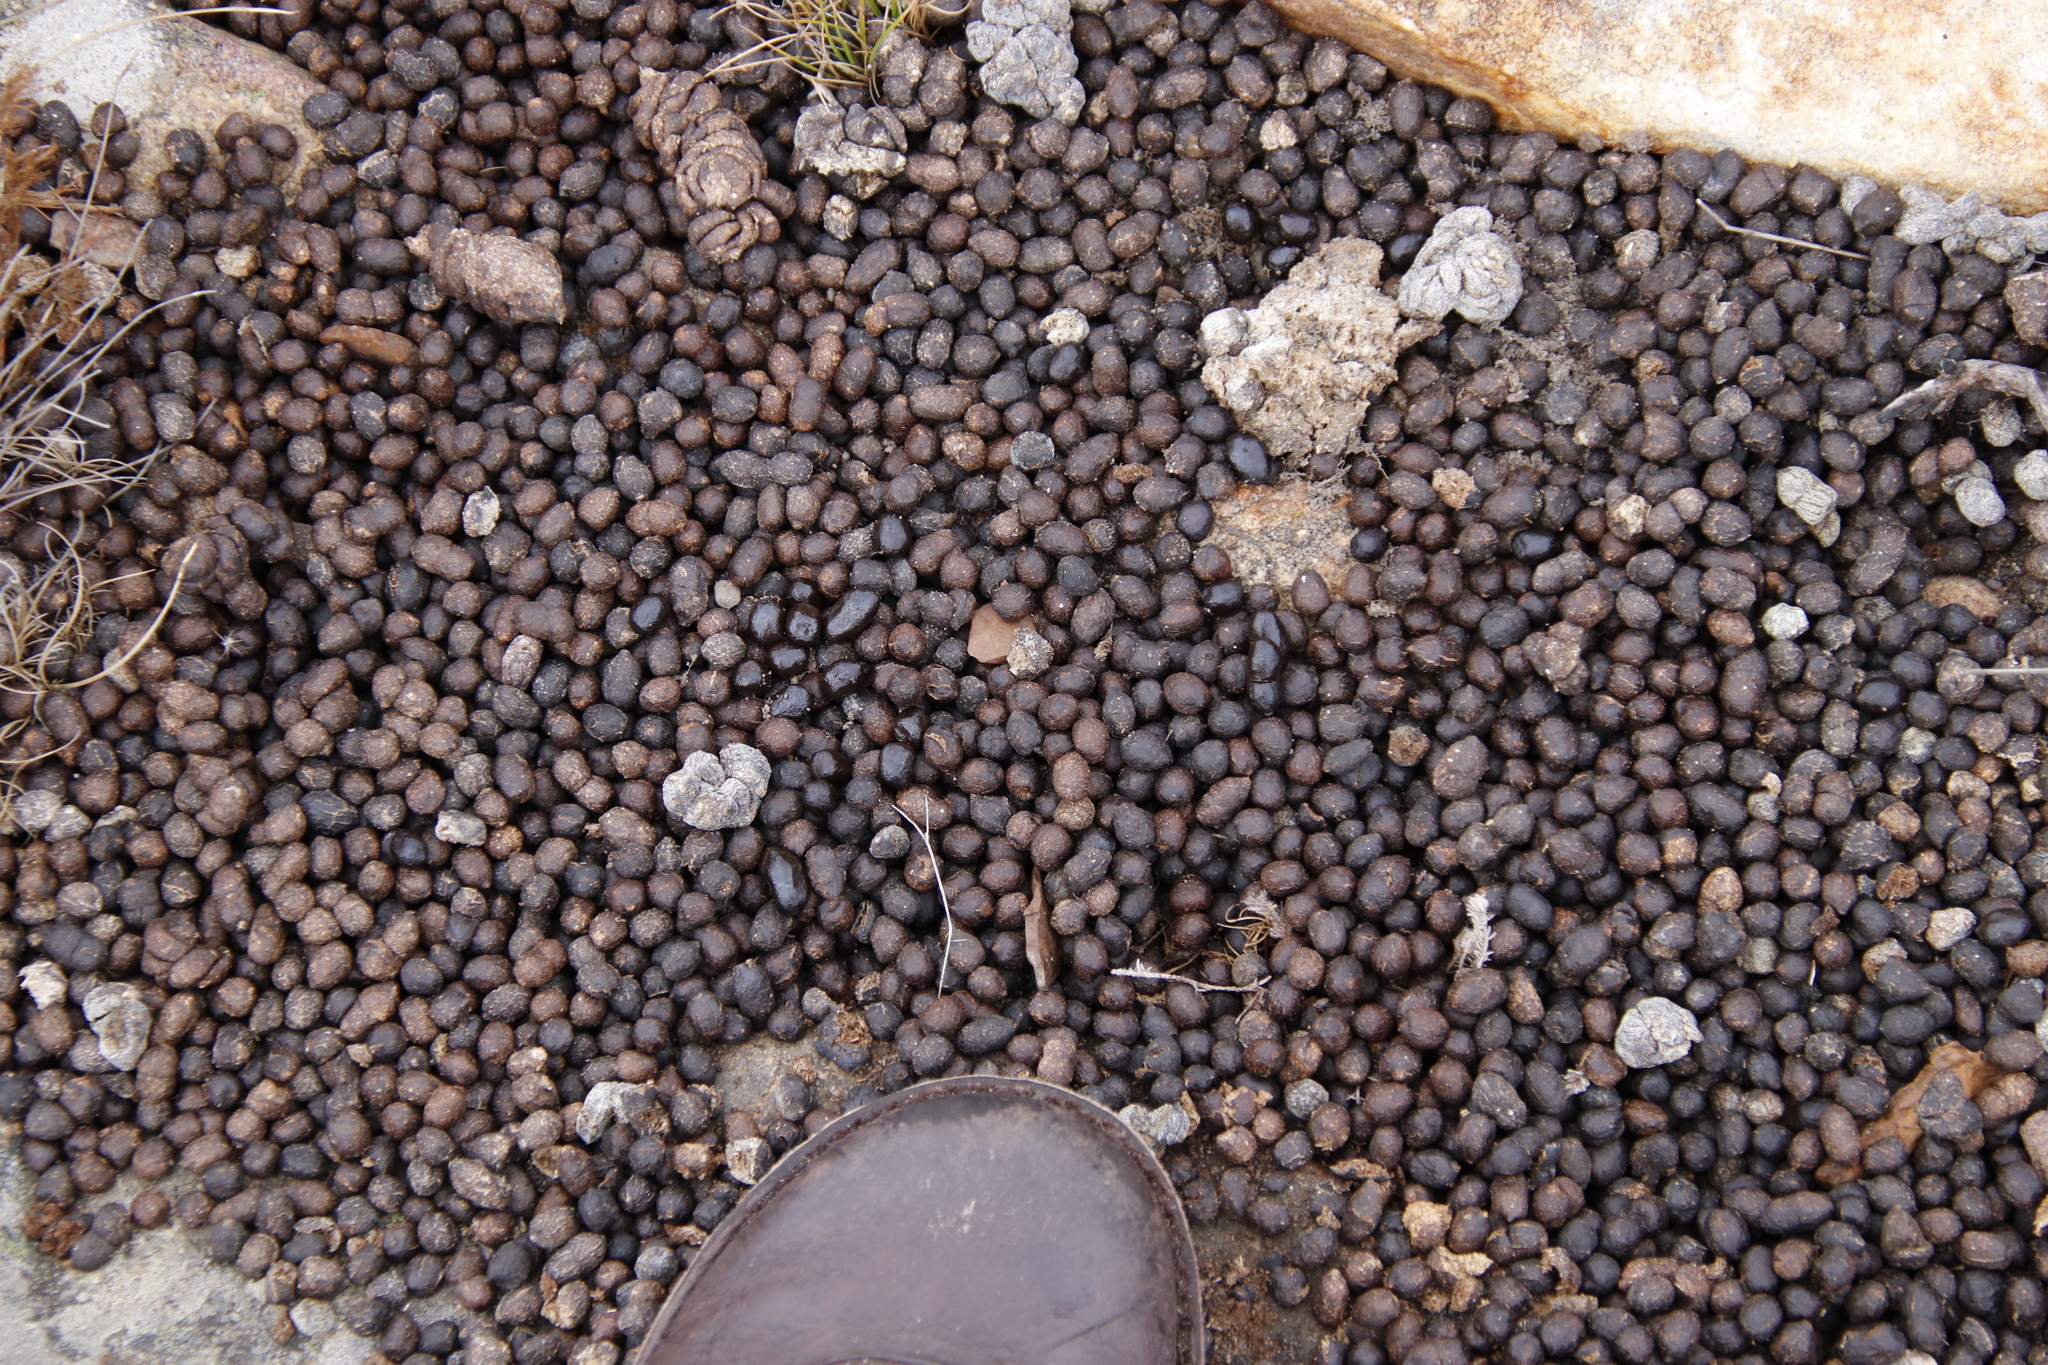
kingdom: Animalia
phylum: Chordata
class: Mammalia
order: Artiodactyla
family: Bovidae
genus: Oreotragus
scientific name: Oreotragus oreotragus
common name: Klipspringer
